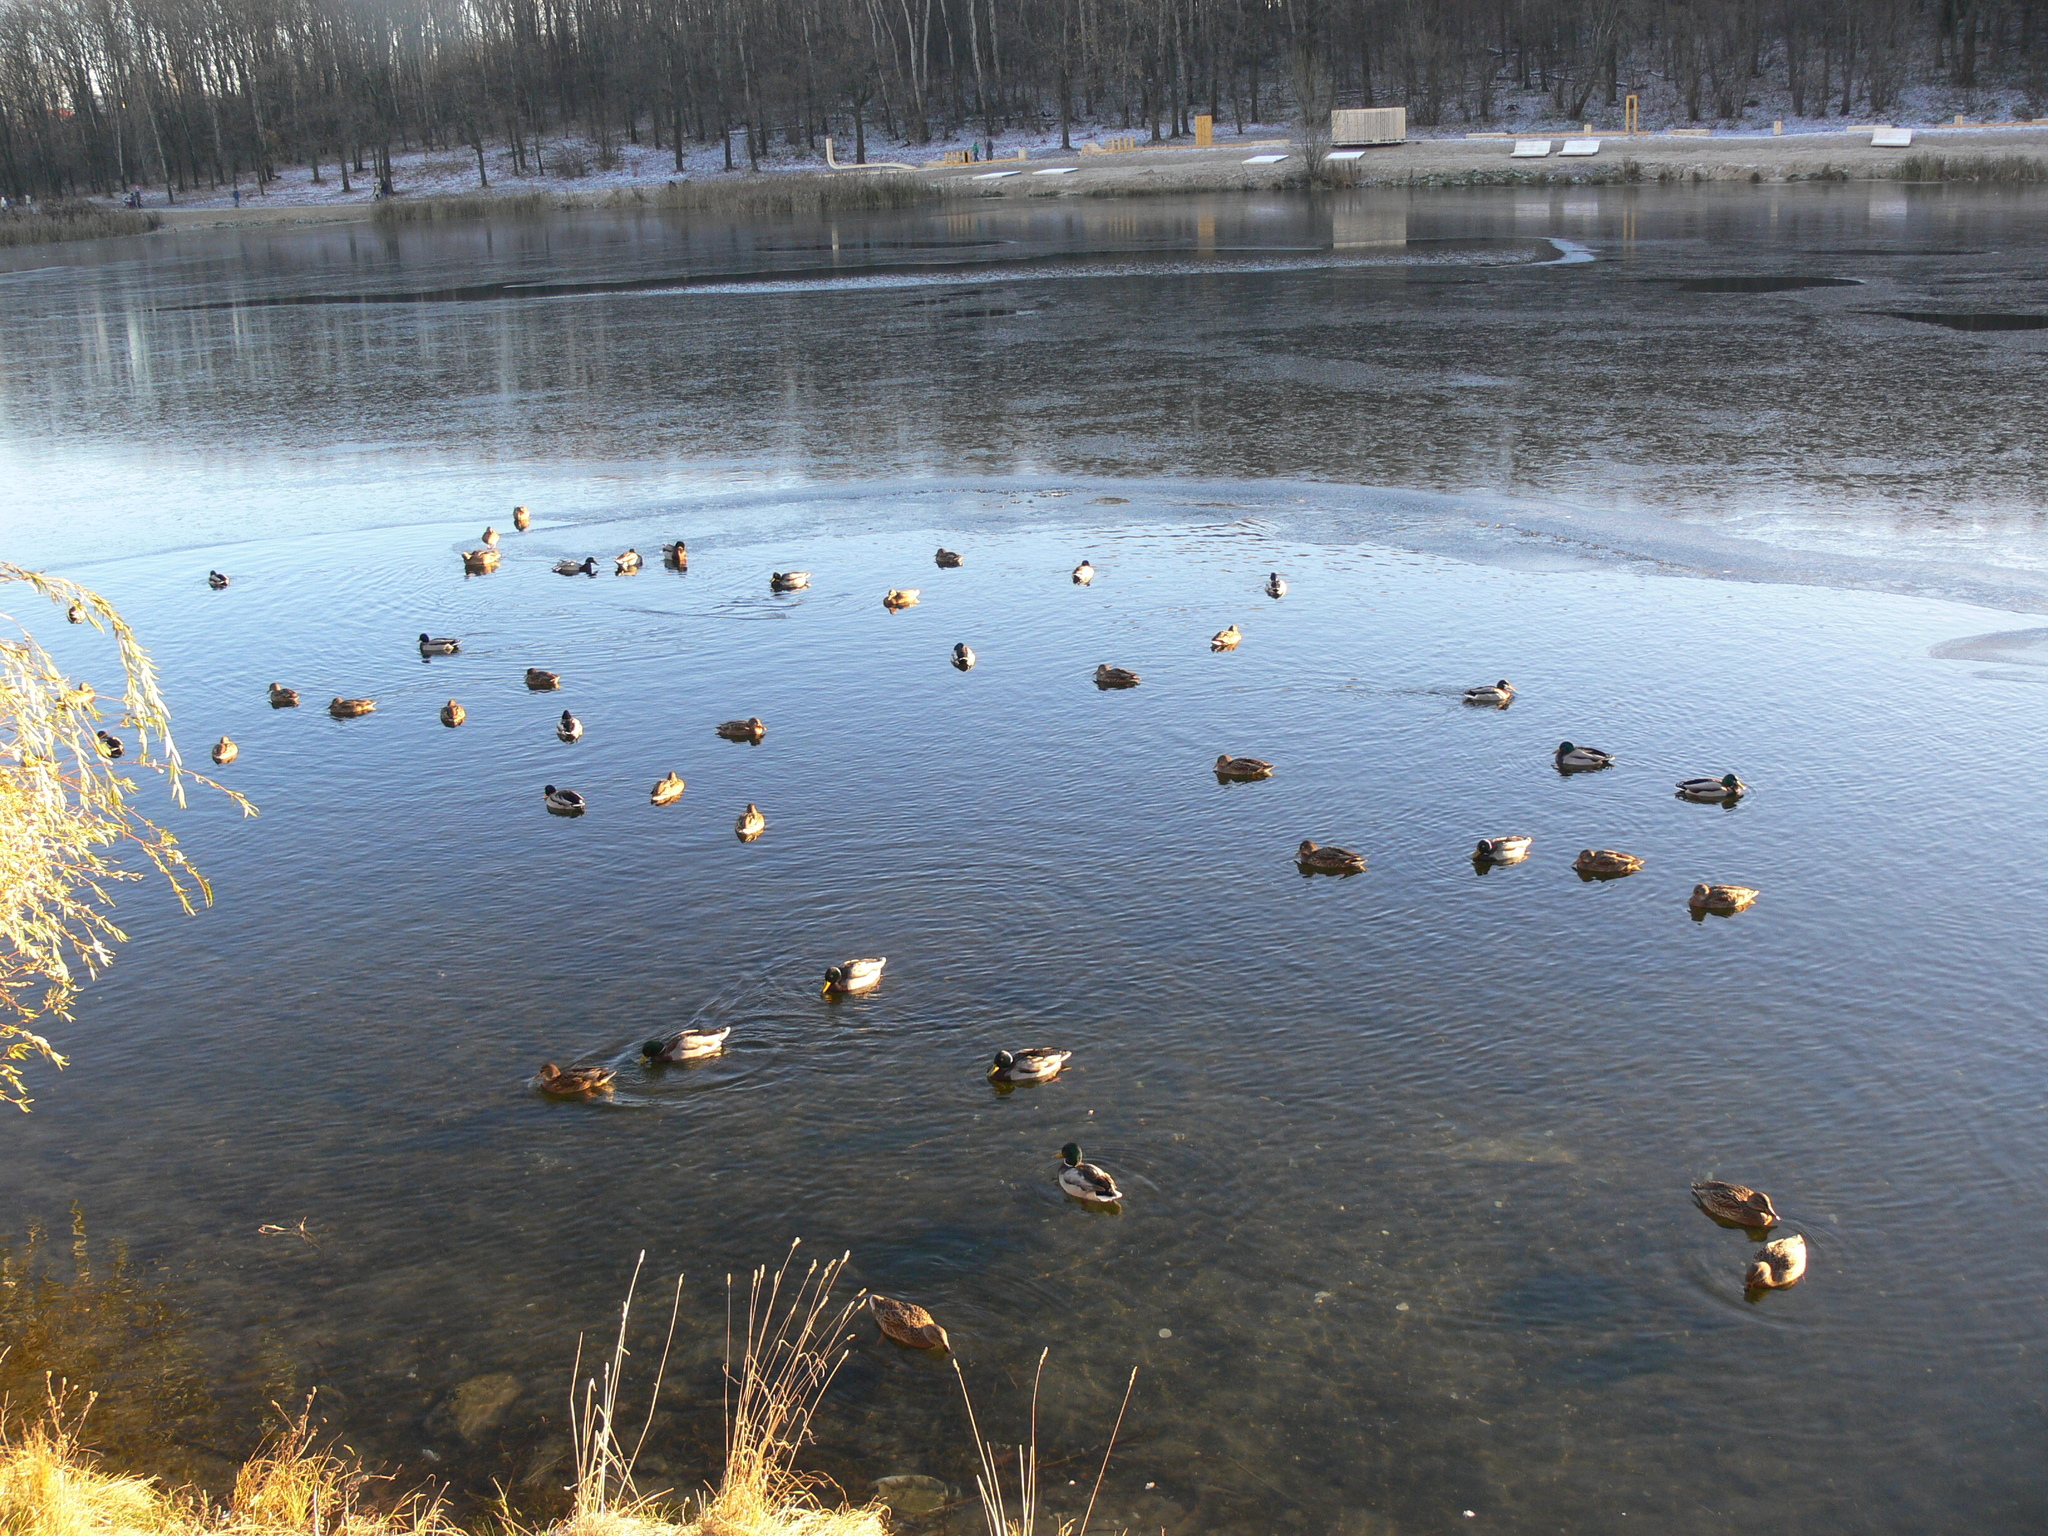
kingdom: Animalia
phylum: Chordata
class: Aves
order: Anseriformes
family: Anatidae
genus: Anas
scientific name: Anas platyrhynchos
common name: Mallard
